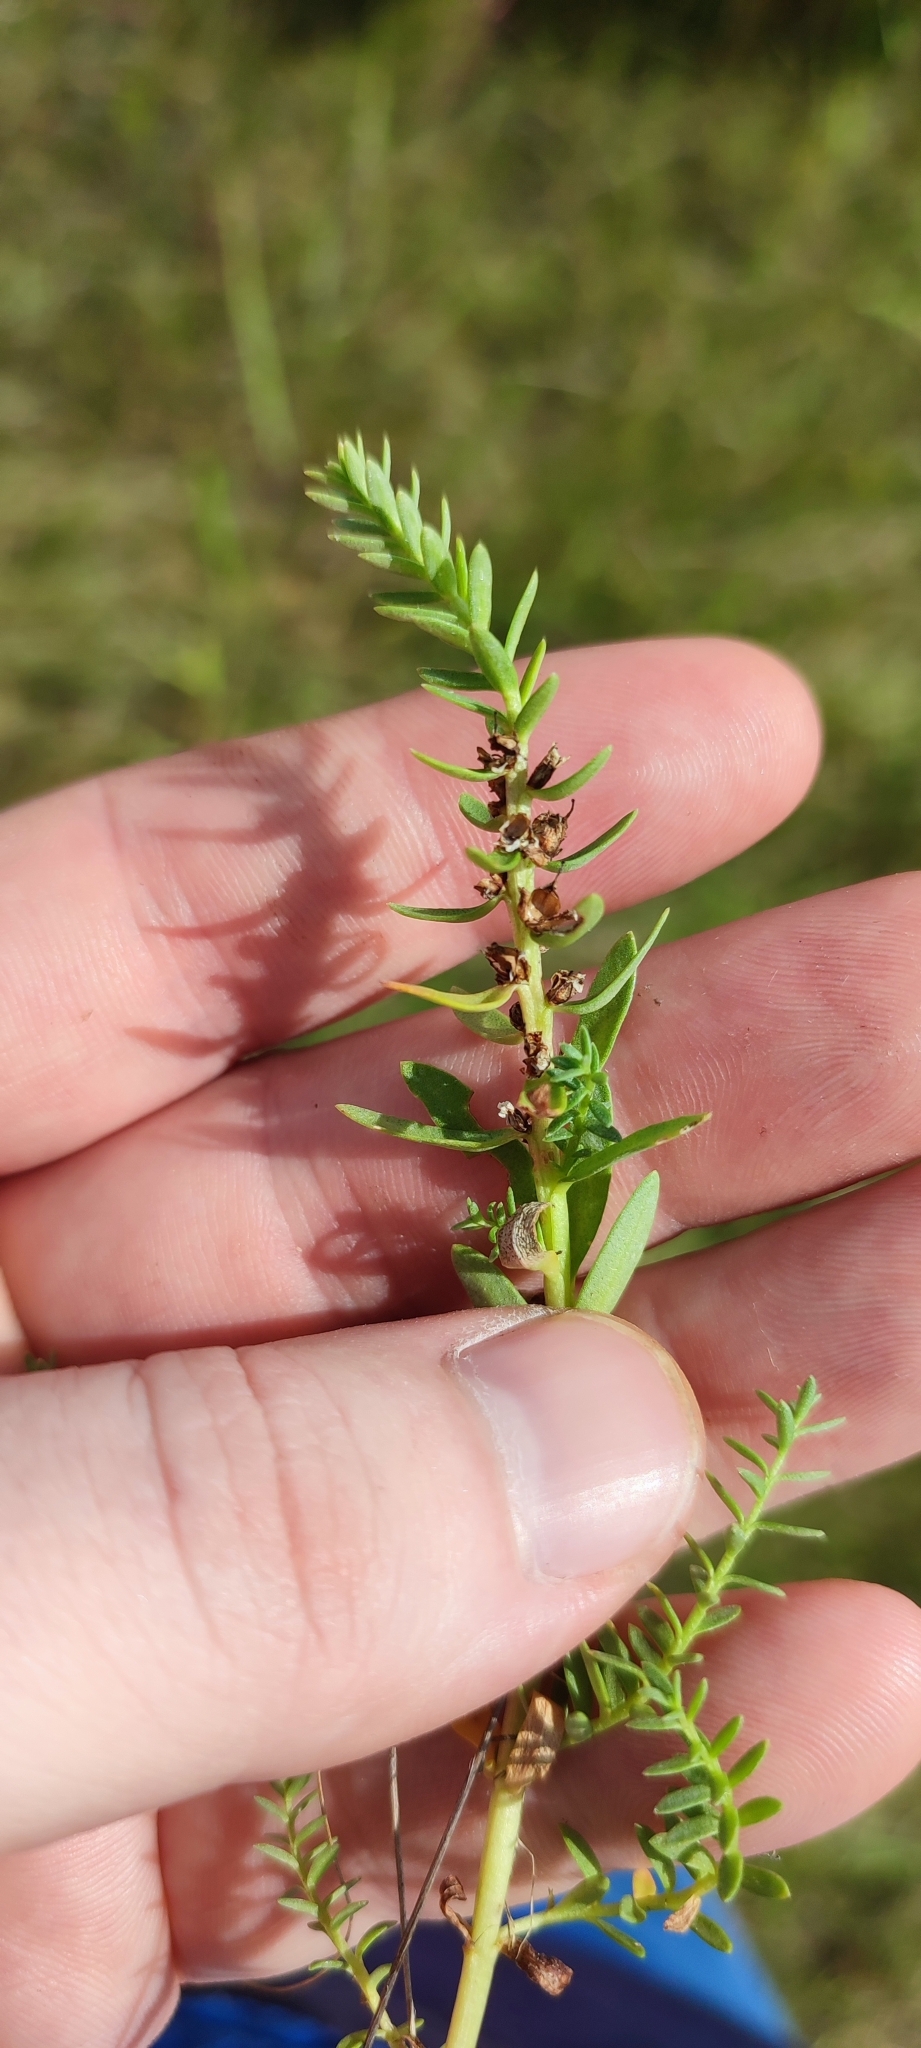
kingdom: Plantae
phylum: Tracheophyta
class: Magnoliopsida
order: Ericales
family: Primulaceae
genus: Lysimachia
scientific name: Lysimachia maritima
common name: Sea milkwort
